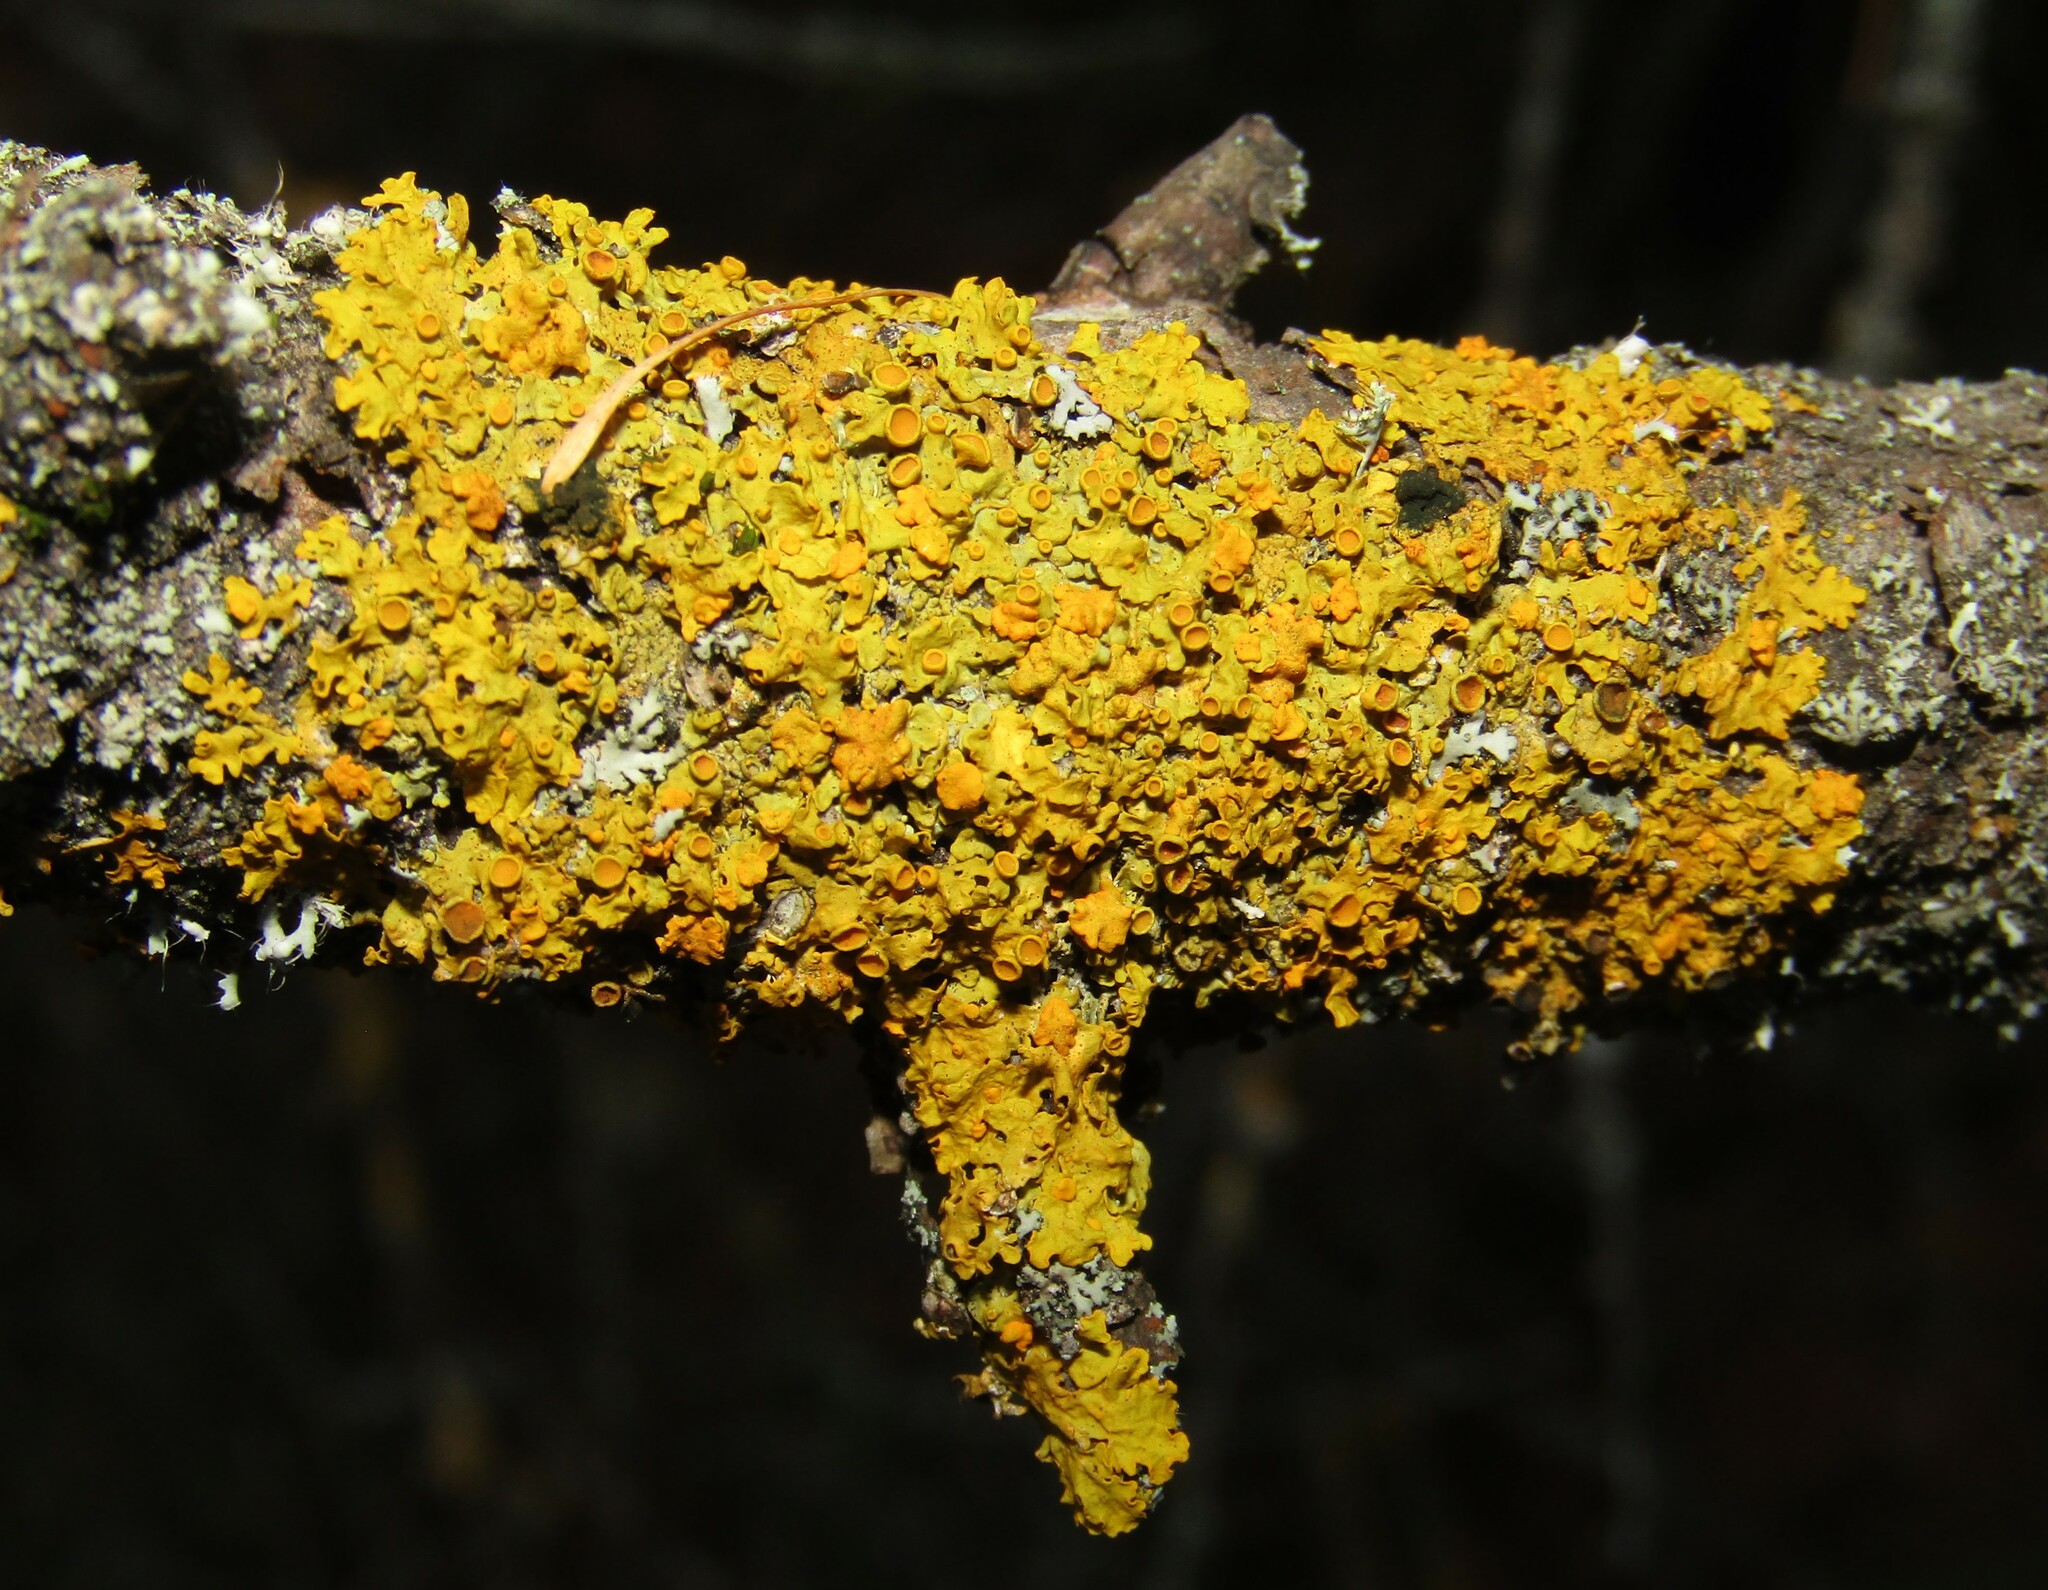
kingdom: Fungi
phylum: Ascomycota
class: Lecanoromycetes
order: Teloschistales
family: Teloschistaceae
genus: Xanthoria
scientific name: Xanthoria parietina
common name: Common orange lichen
